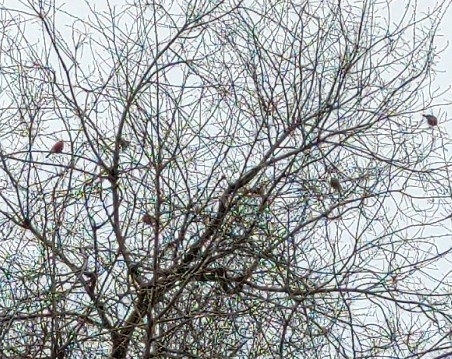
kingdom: Animalia
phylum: Chordata
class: Aves
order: Passeriformes
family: Fringillidae
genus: Pyrrhula
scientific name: Pyrrhula pyrrhula
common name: Eurasian bullfinch
